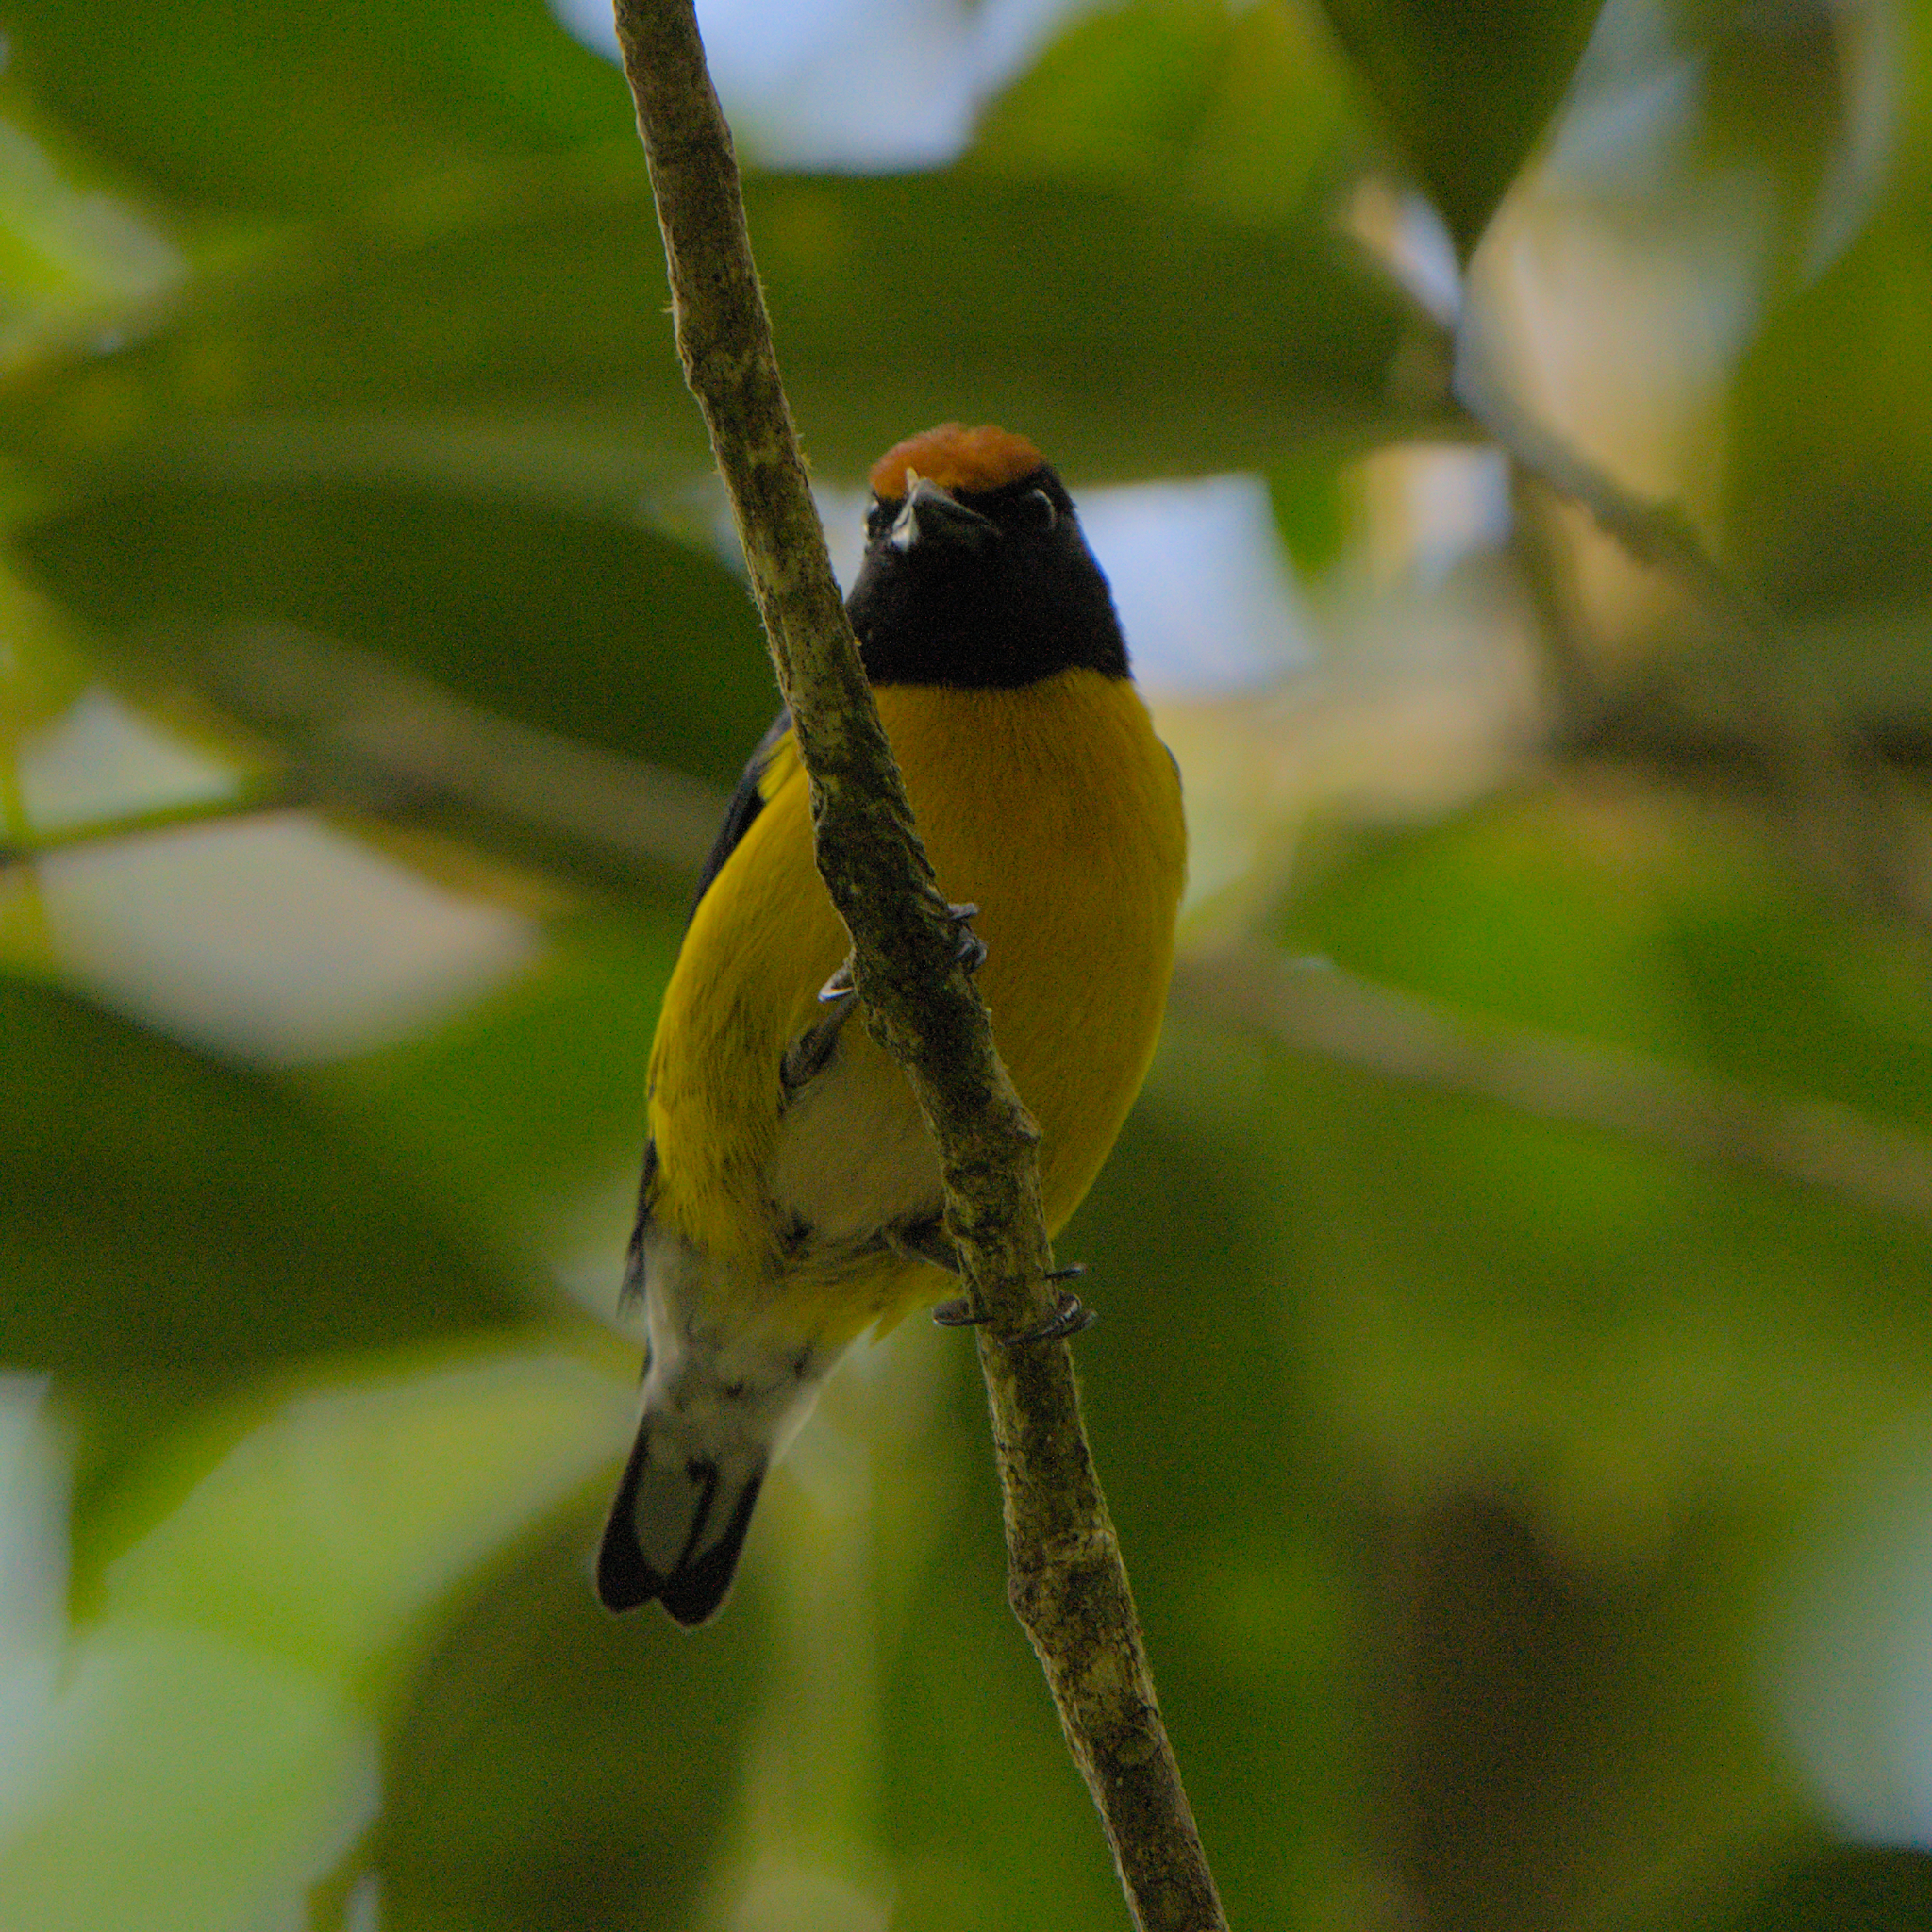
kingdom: Animalia
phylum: Chordata
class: Aves
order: Passeriformes
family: Fringillidae
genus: Euphonia
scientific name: Euphonia anneae
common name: Tawny-capped euphonia
